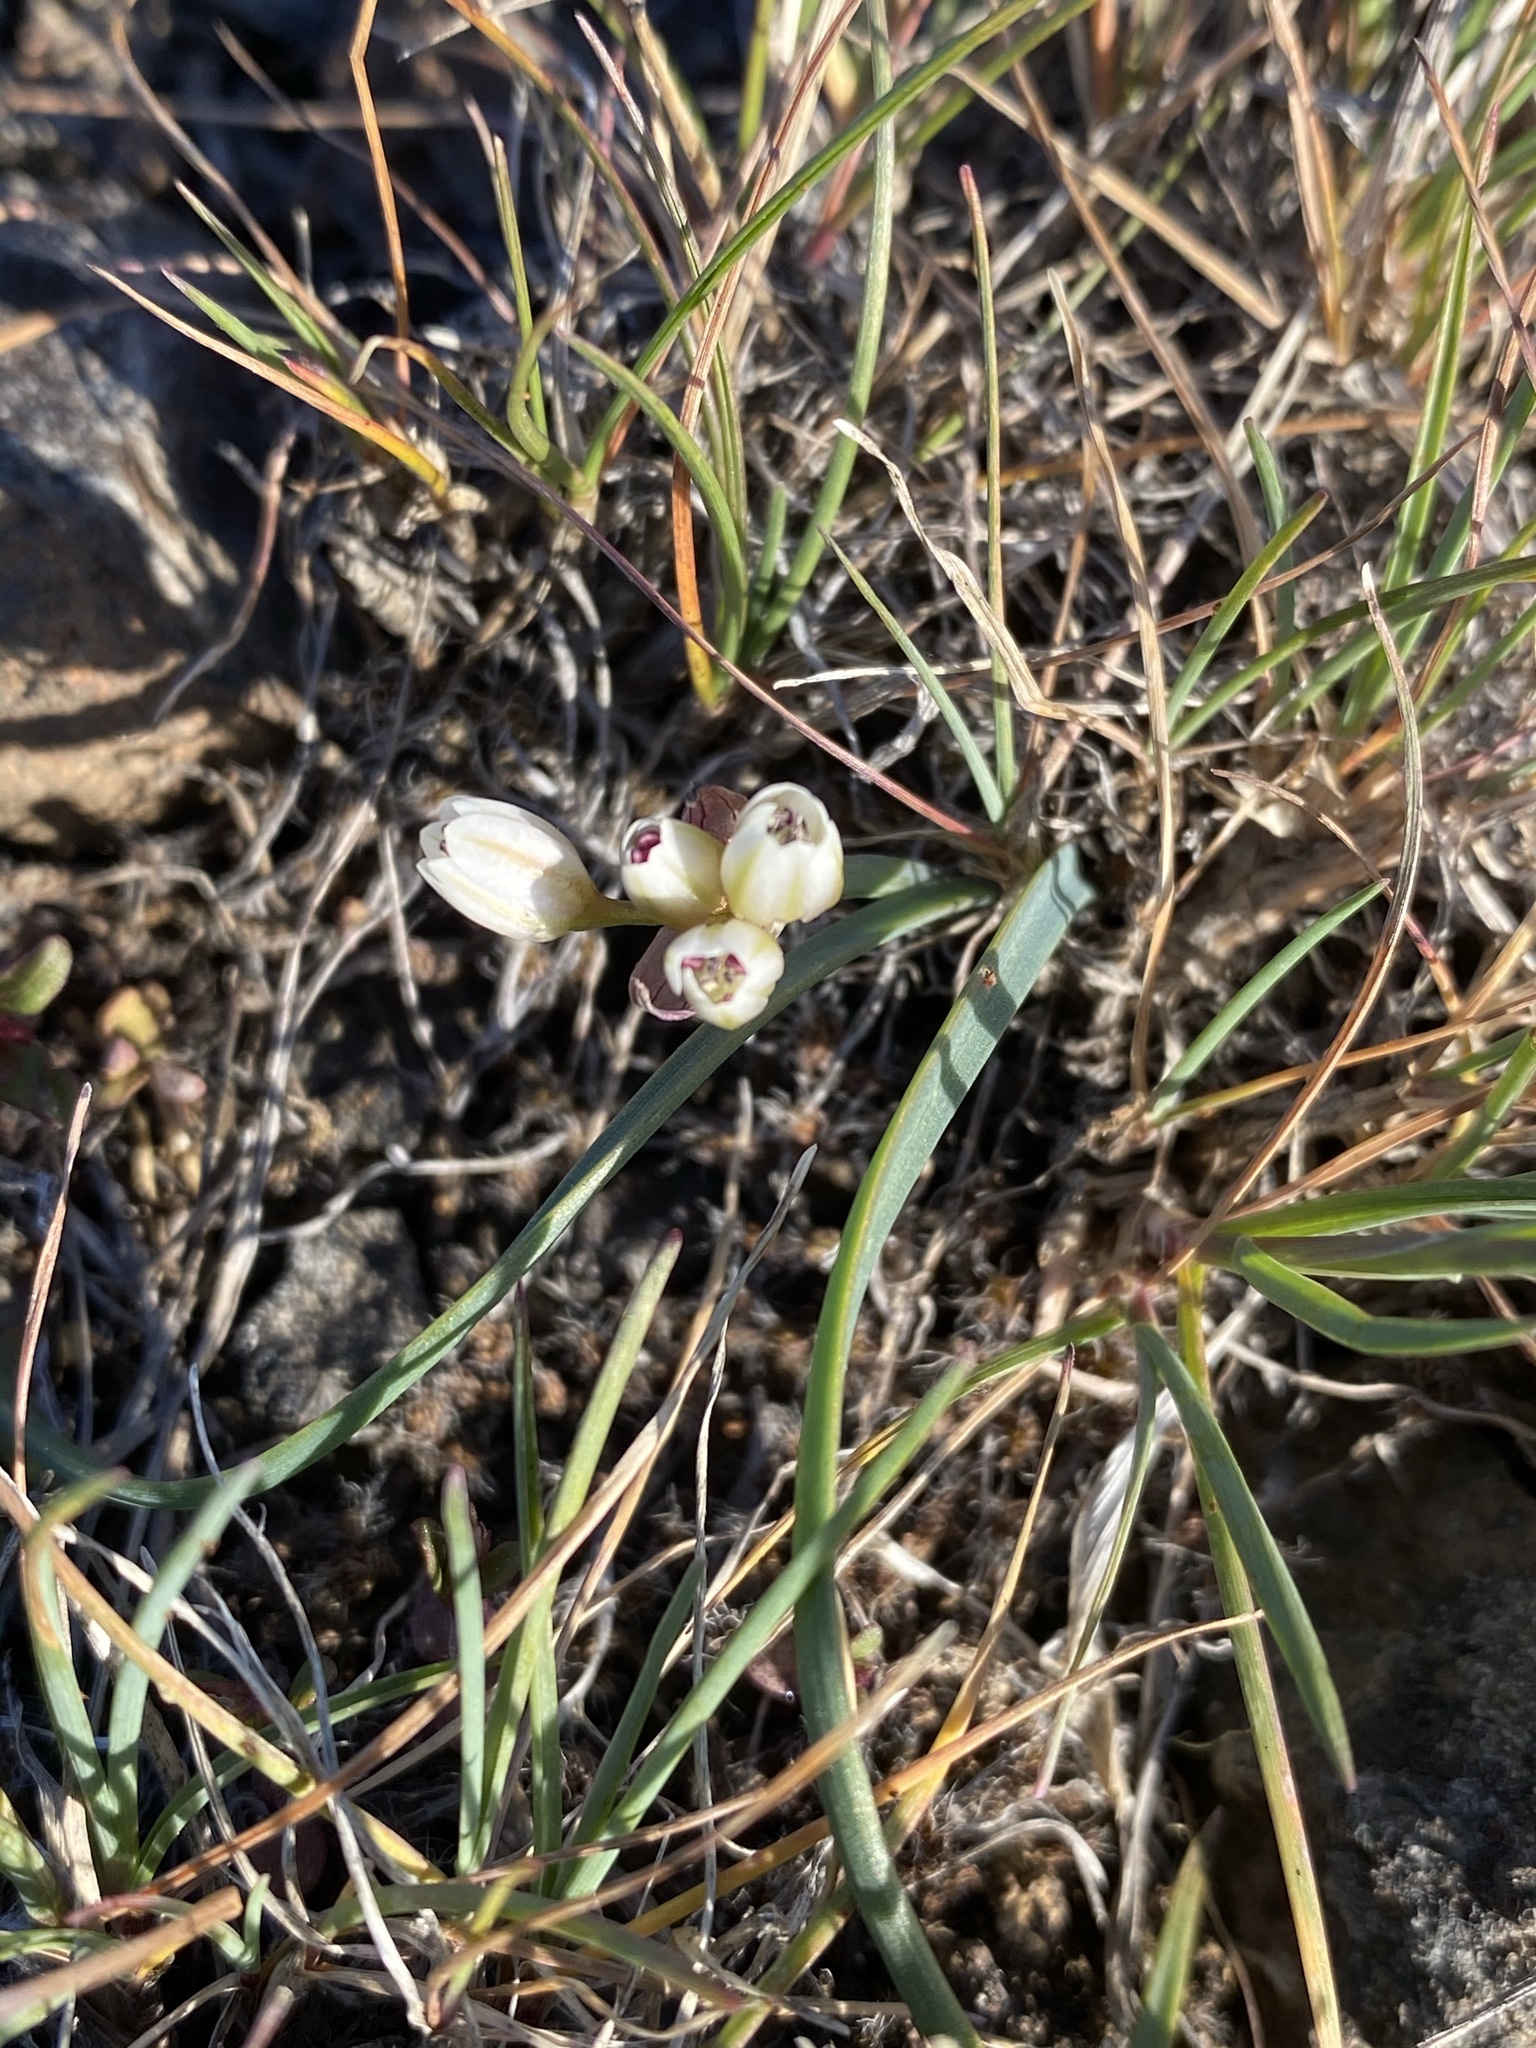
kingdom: Plantae
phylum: Tracheophyta
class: Liliopsida
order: Asparagales
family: Amaryllidaceae
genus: Allium
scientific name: Allium scilloides
